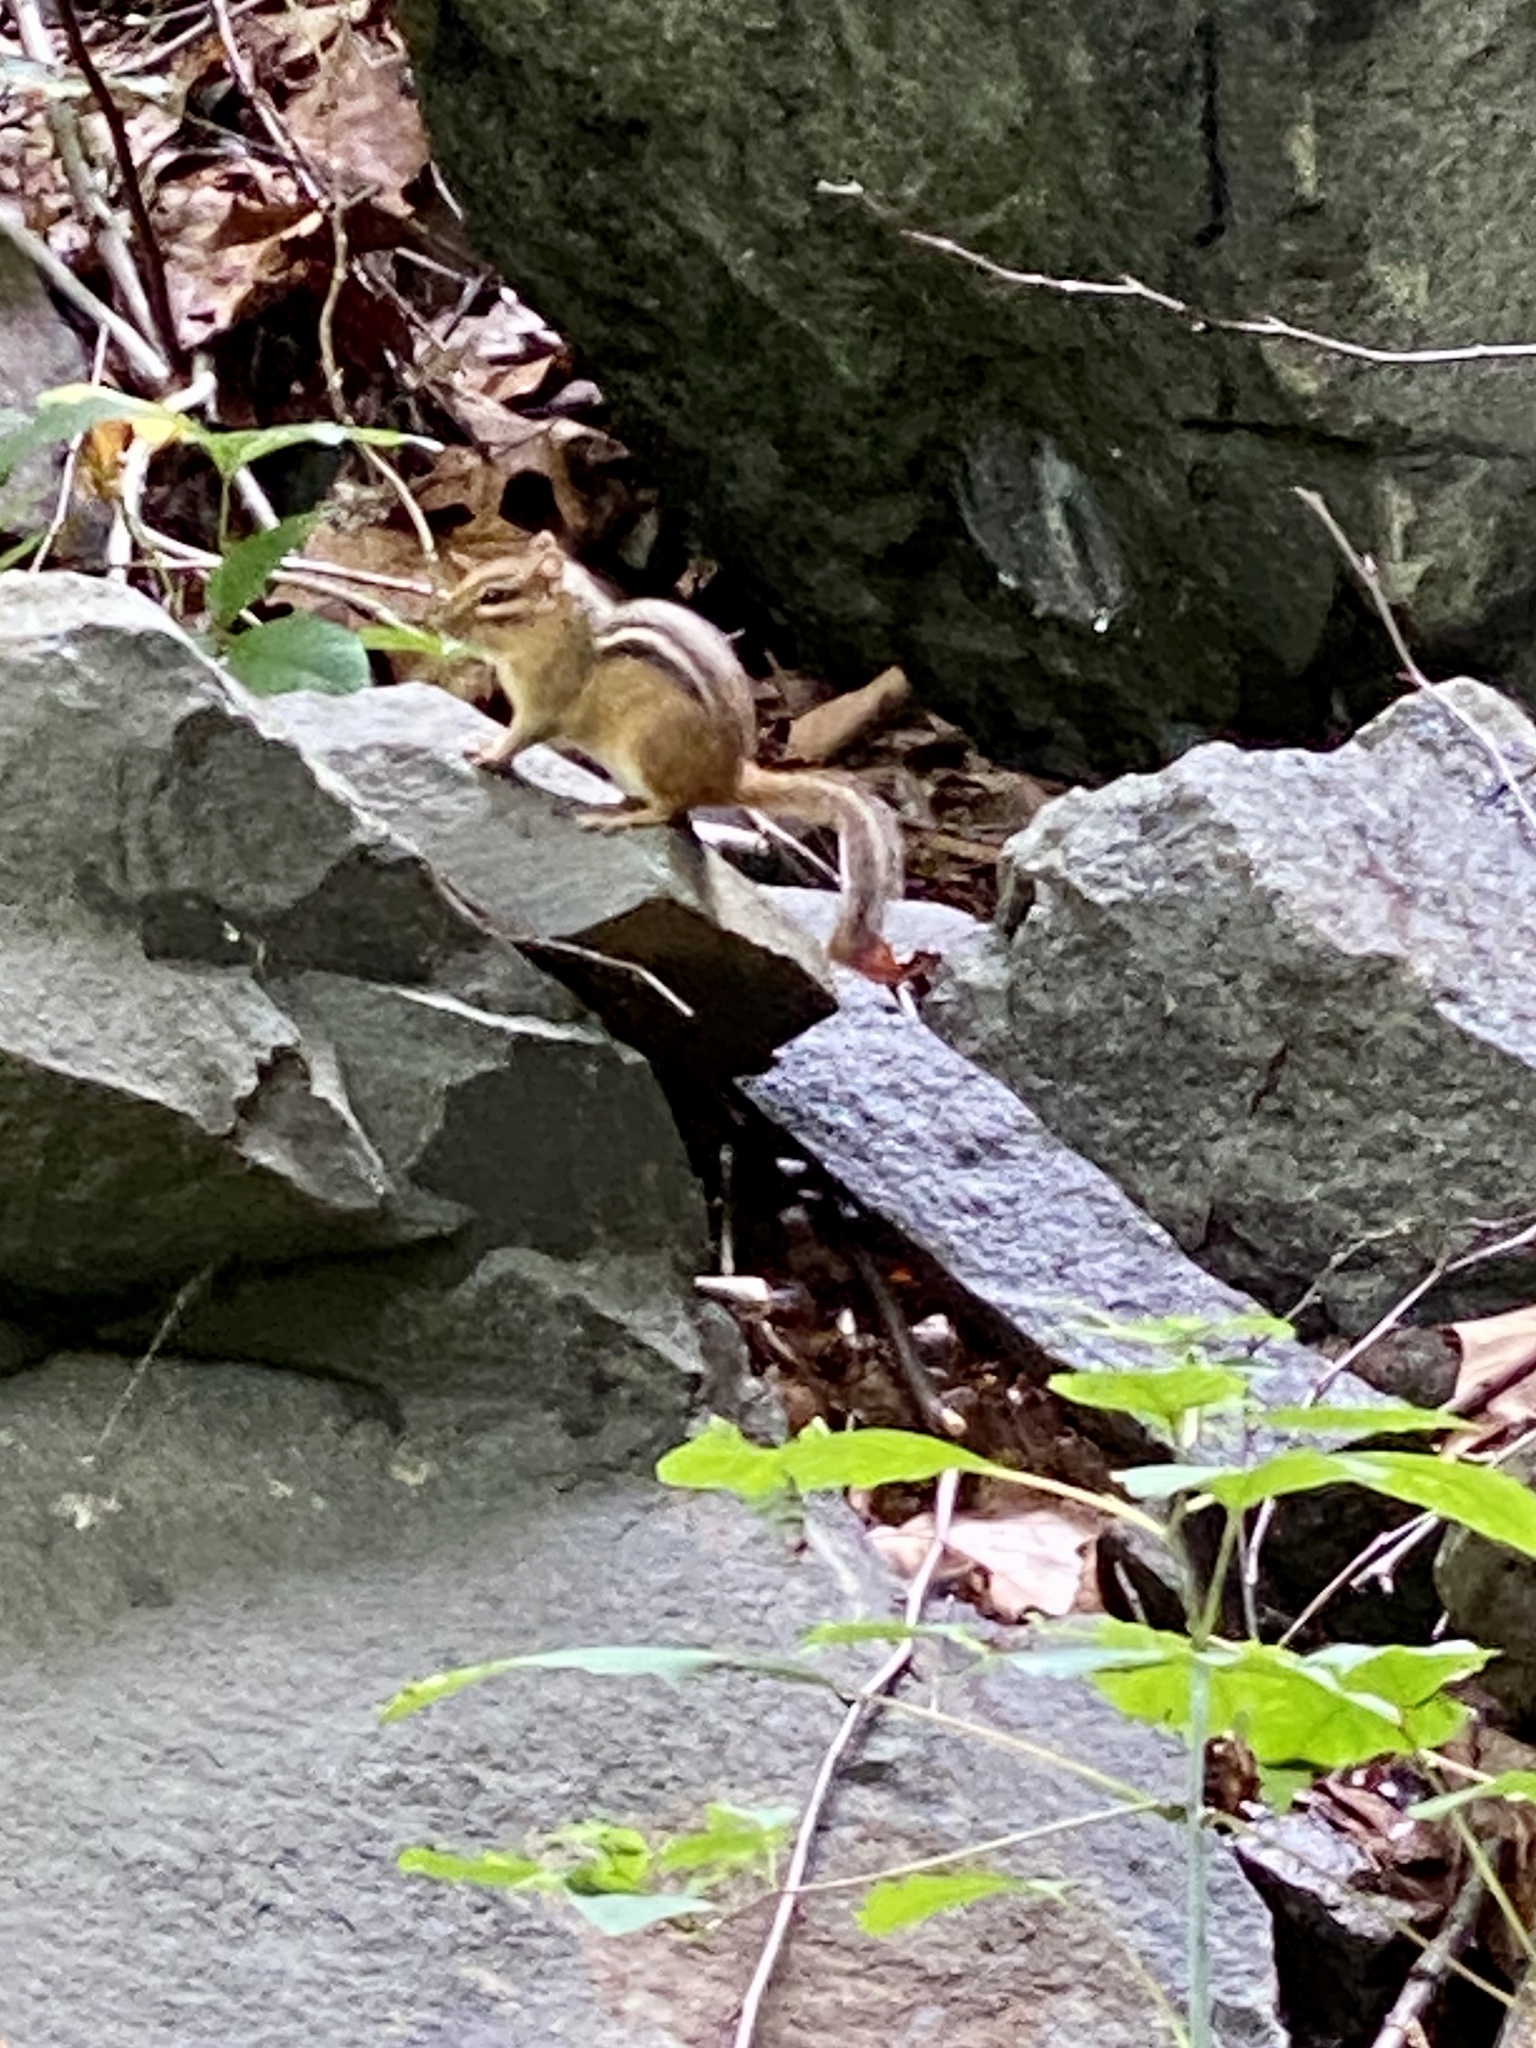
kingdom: Animalia
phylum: Chordata
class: Mammalia
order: Rodentia
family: Sciuridae
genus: Tamias
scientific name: Tamias striatus
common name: Eastern chipmunk
